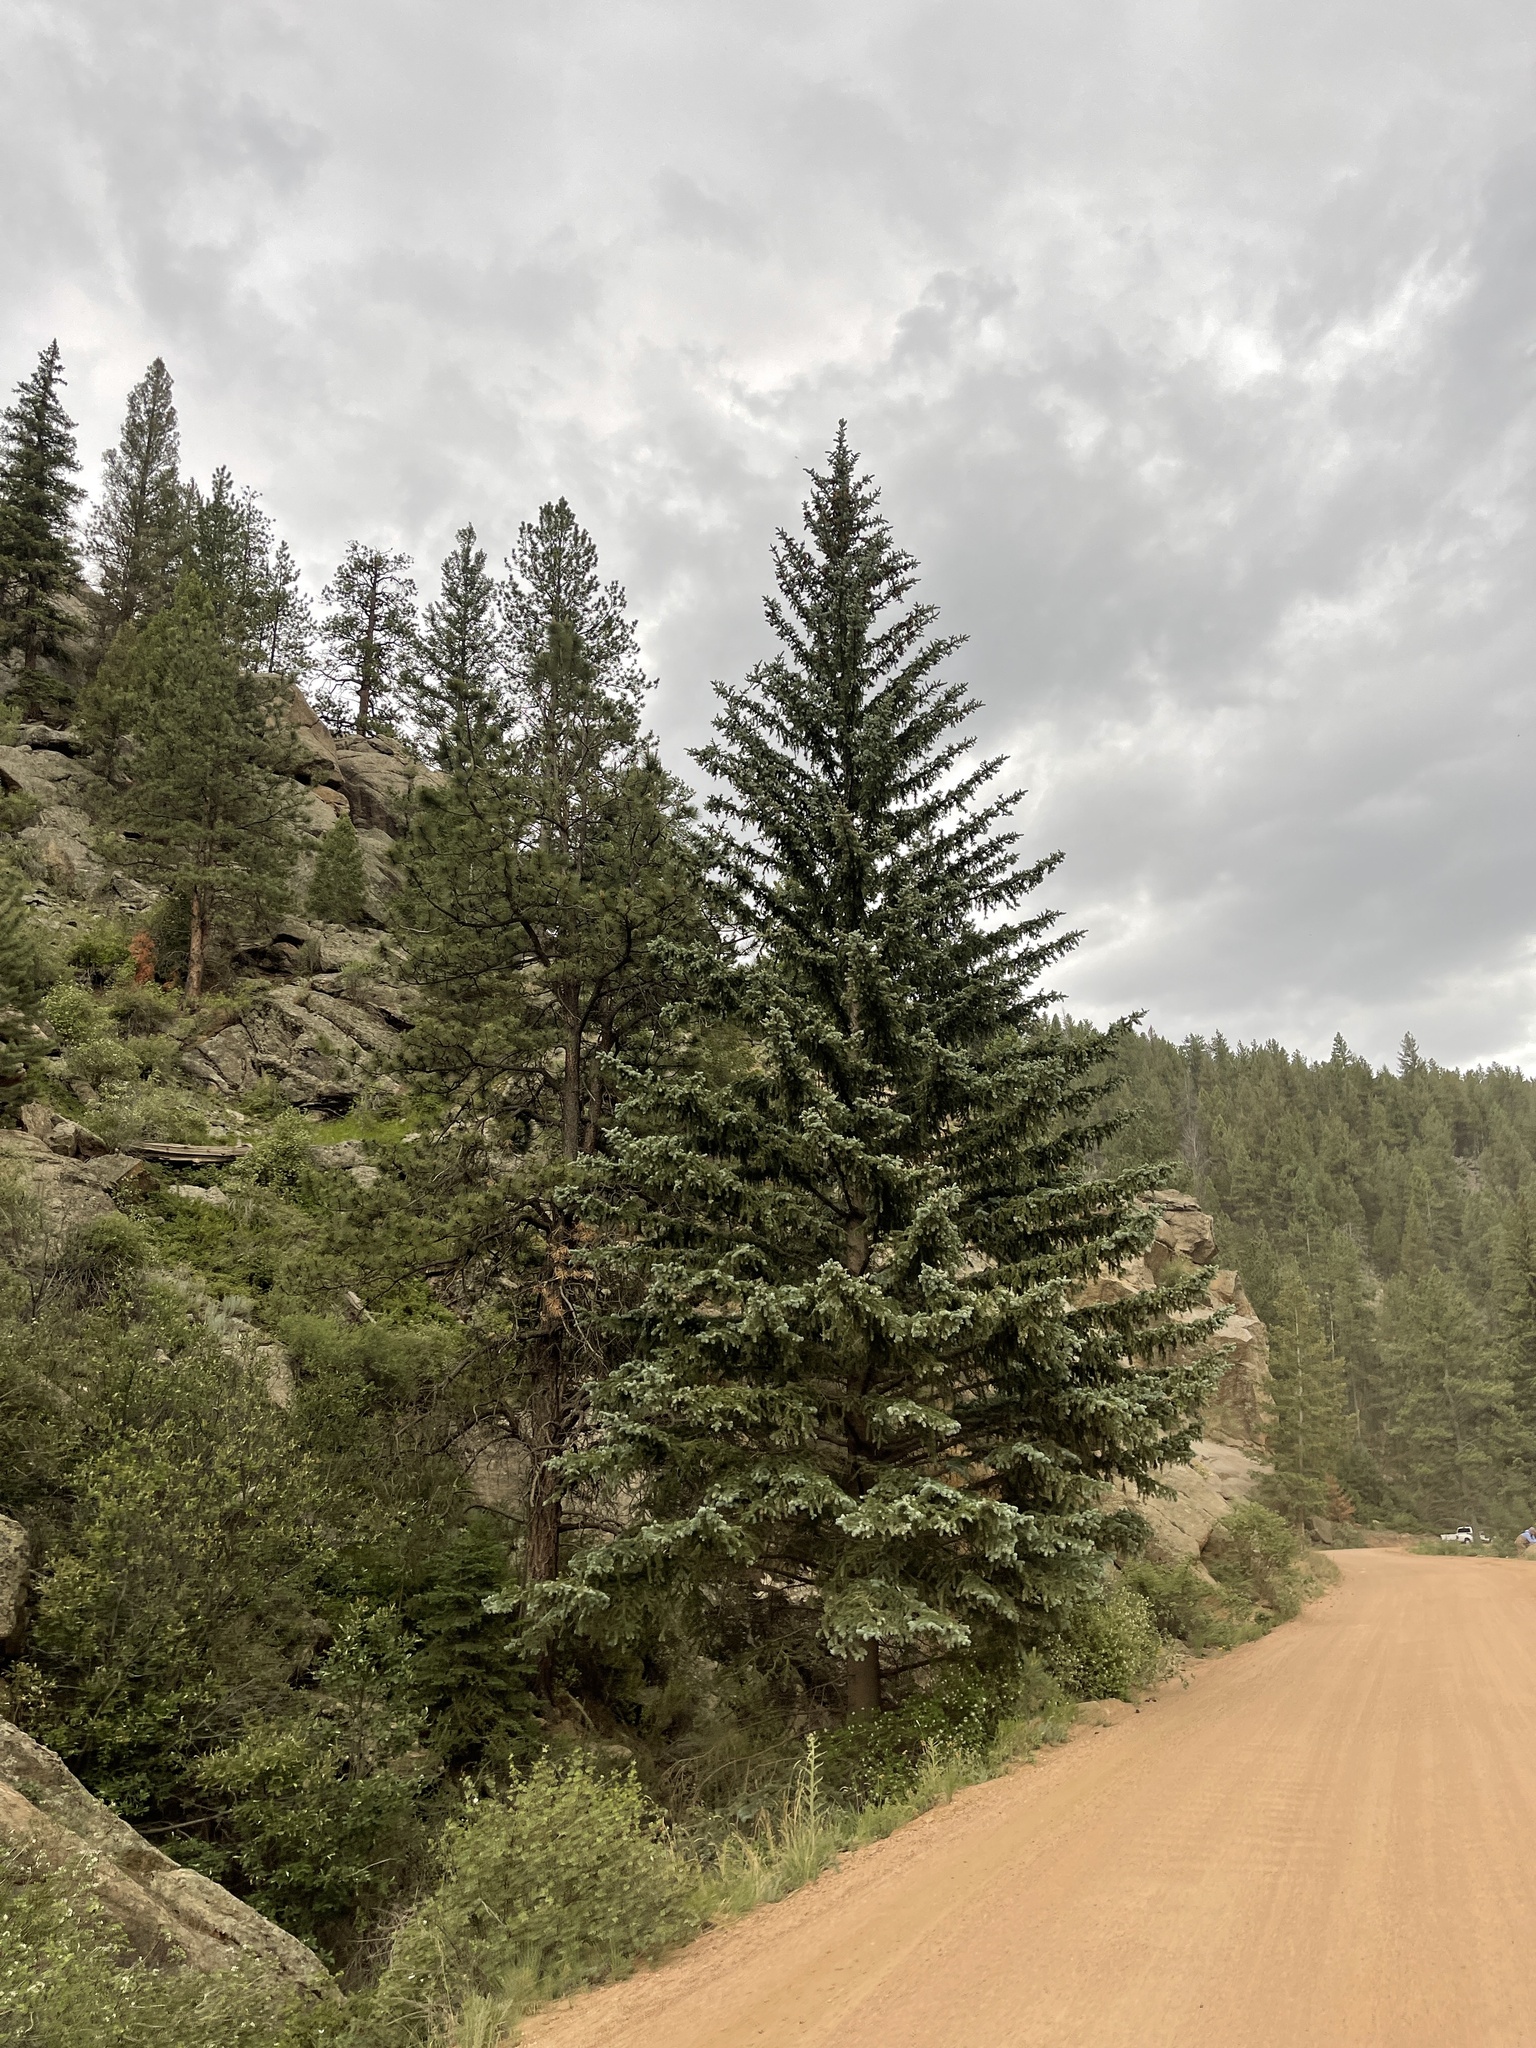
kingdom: Plantae
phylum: Tracheophyta
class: Pinopsida
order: Pinales
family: Pinaceae
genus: Picea
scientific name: Picea pungens
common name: Colorado spruce
